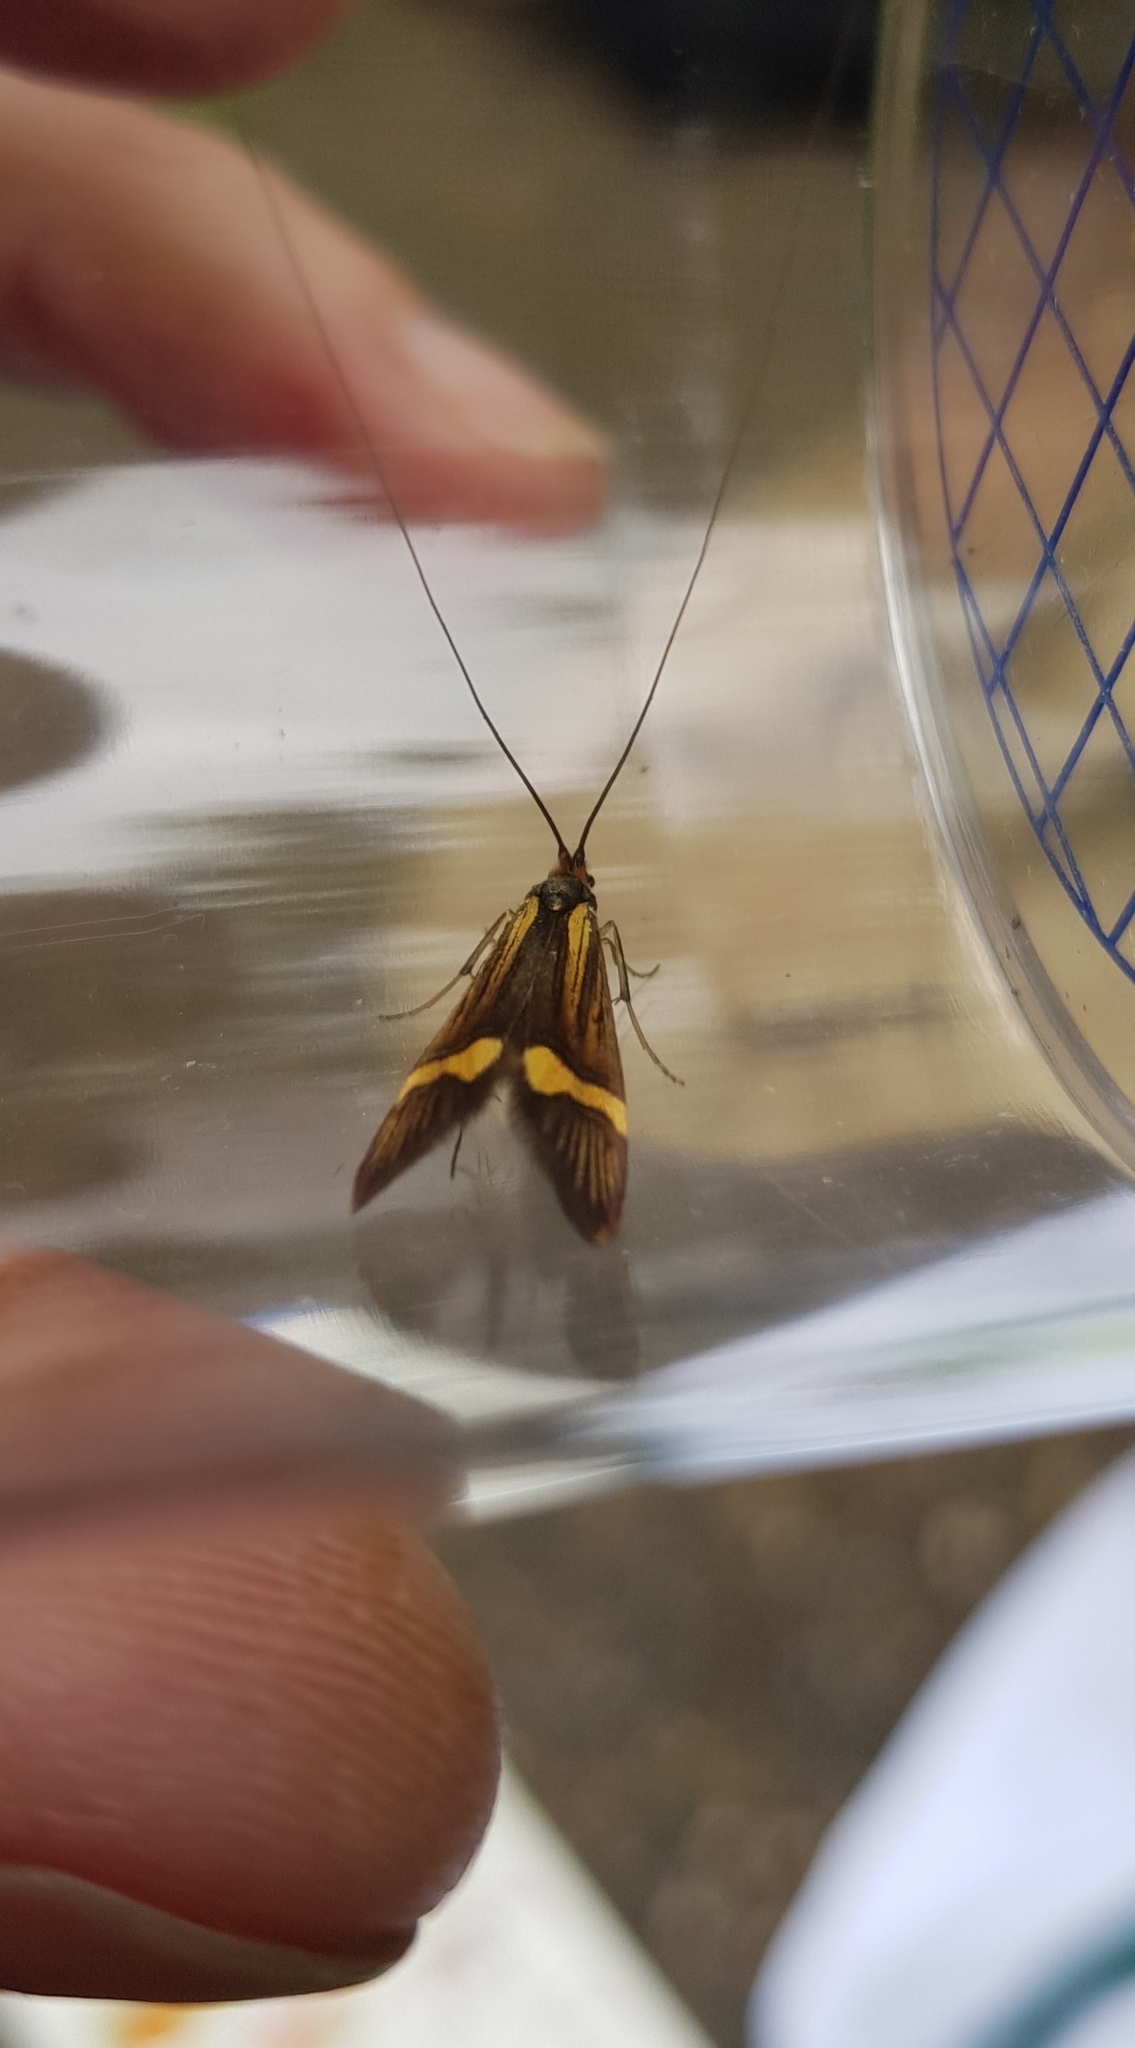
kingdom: Animalia
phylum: Arthropoda
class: Insecta
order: Lepidoptera
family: Adelidae
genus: Nemophora
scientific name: Nemophora degeerella
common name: Yellow-barred long-horn
